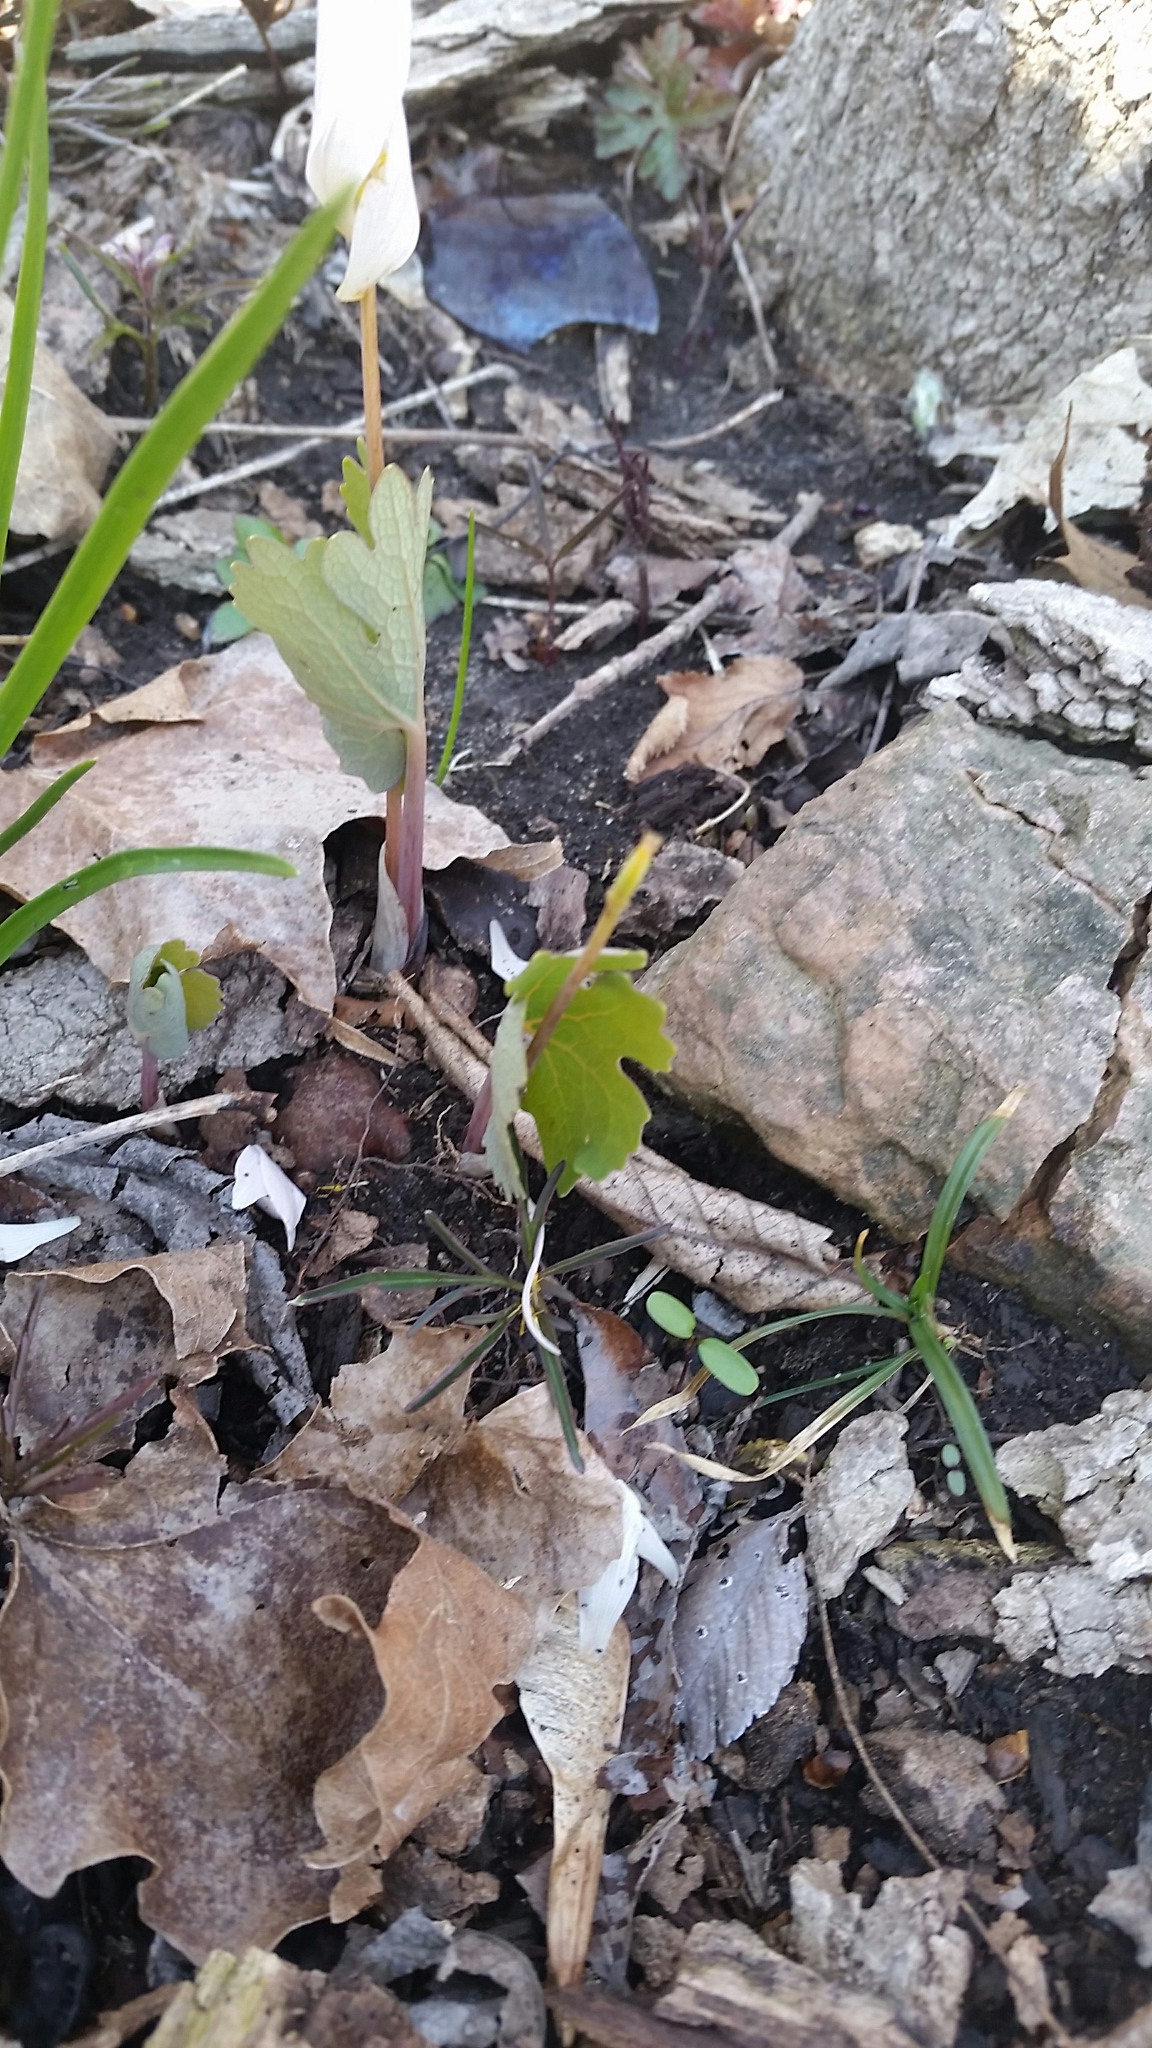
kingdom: Plantae
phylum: Tracheophyta
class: Magnoliopsida
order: Ranunculales
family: Papaveraceae
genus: Sanguinaria
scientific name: Sanguinaria canadensis
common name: Bloodroot
